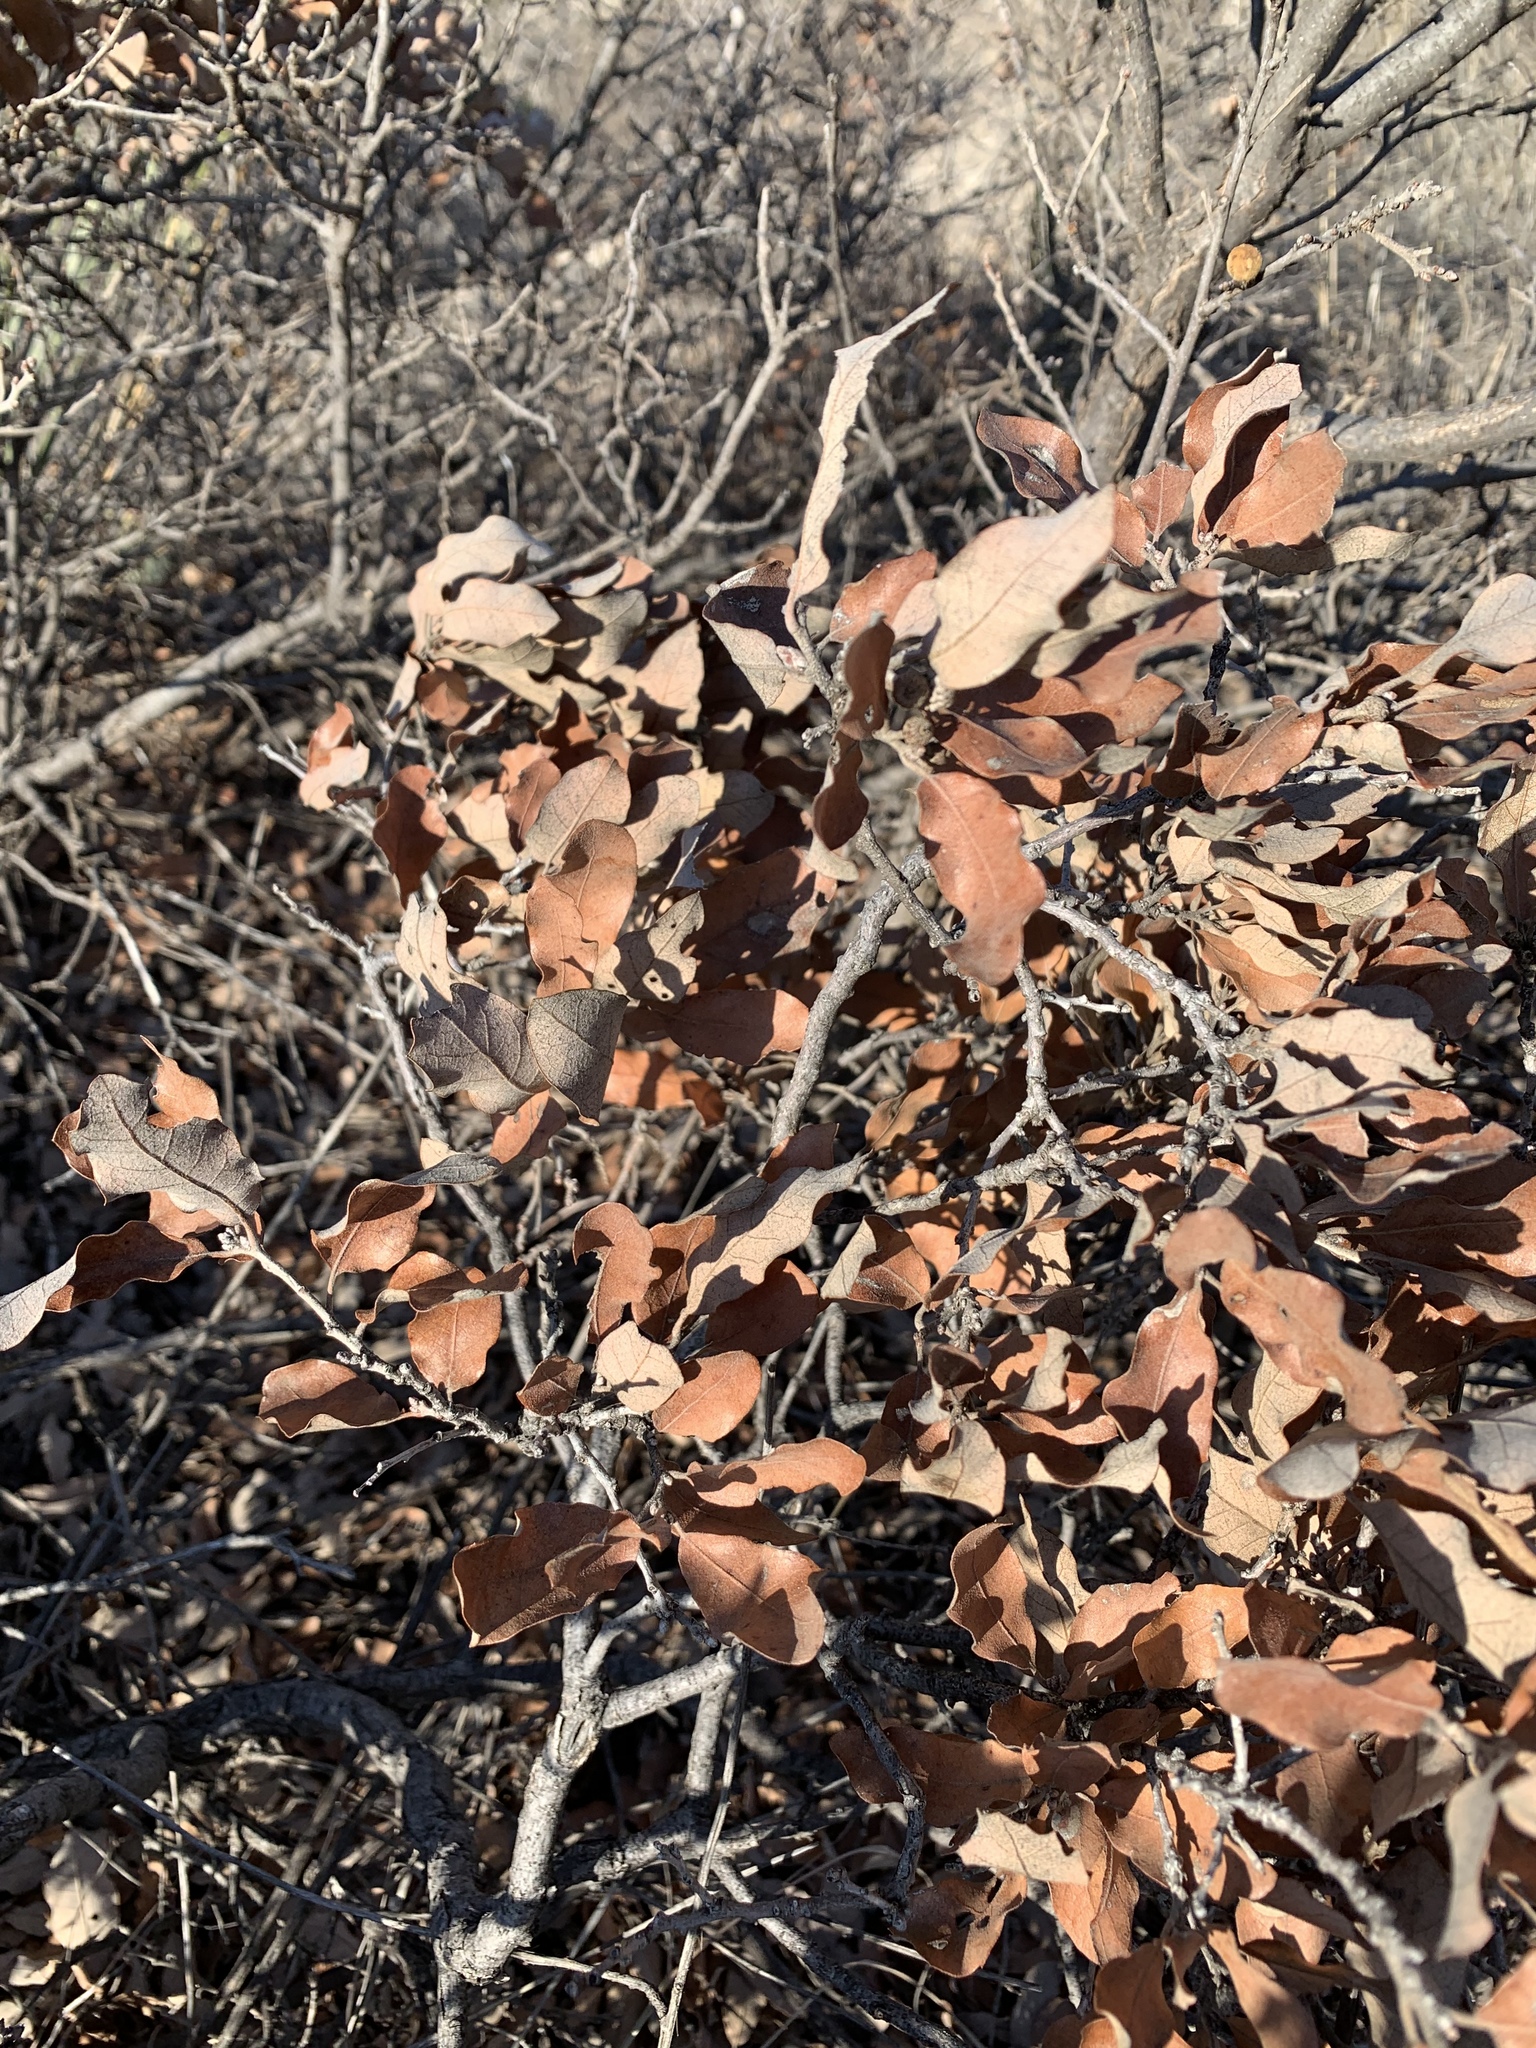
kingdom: Plantae
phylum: Tracheophyta
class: Magnoliopsida
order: Fagales
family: Fagaceae
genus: Quercus
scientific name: Quercus havardii
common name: Shinnery oak
